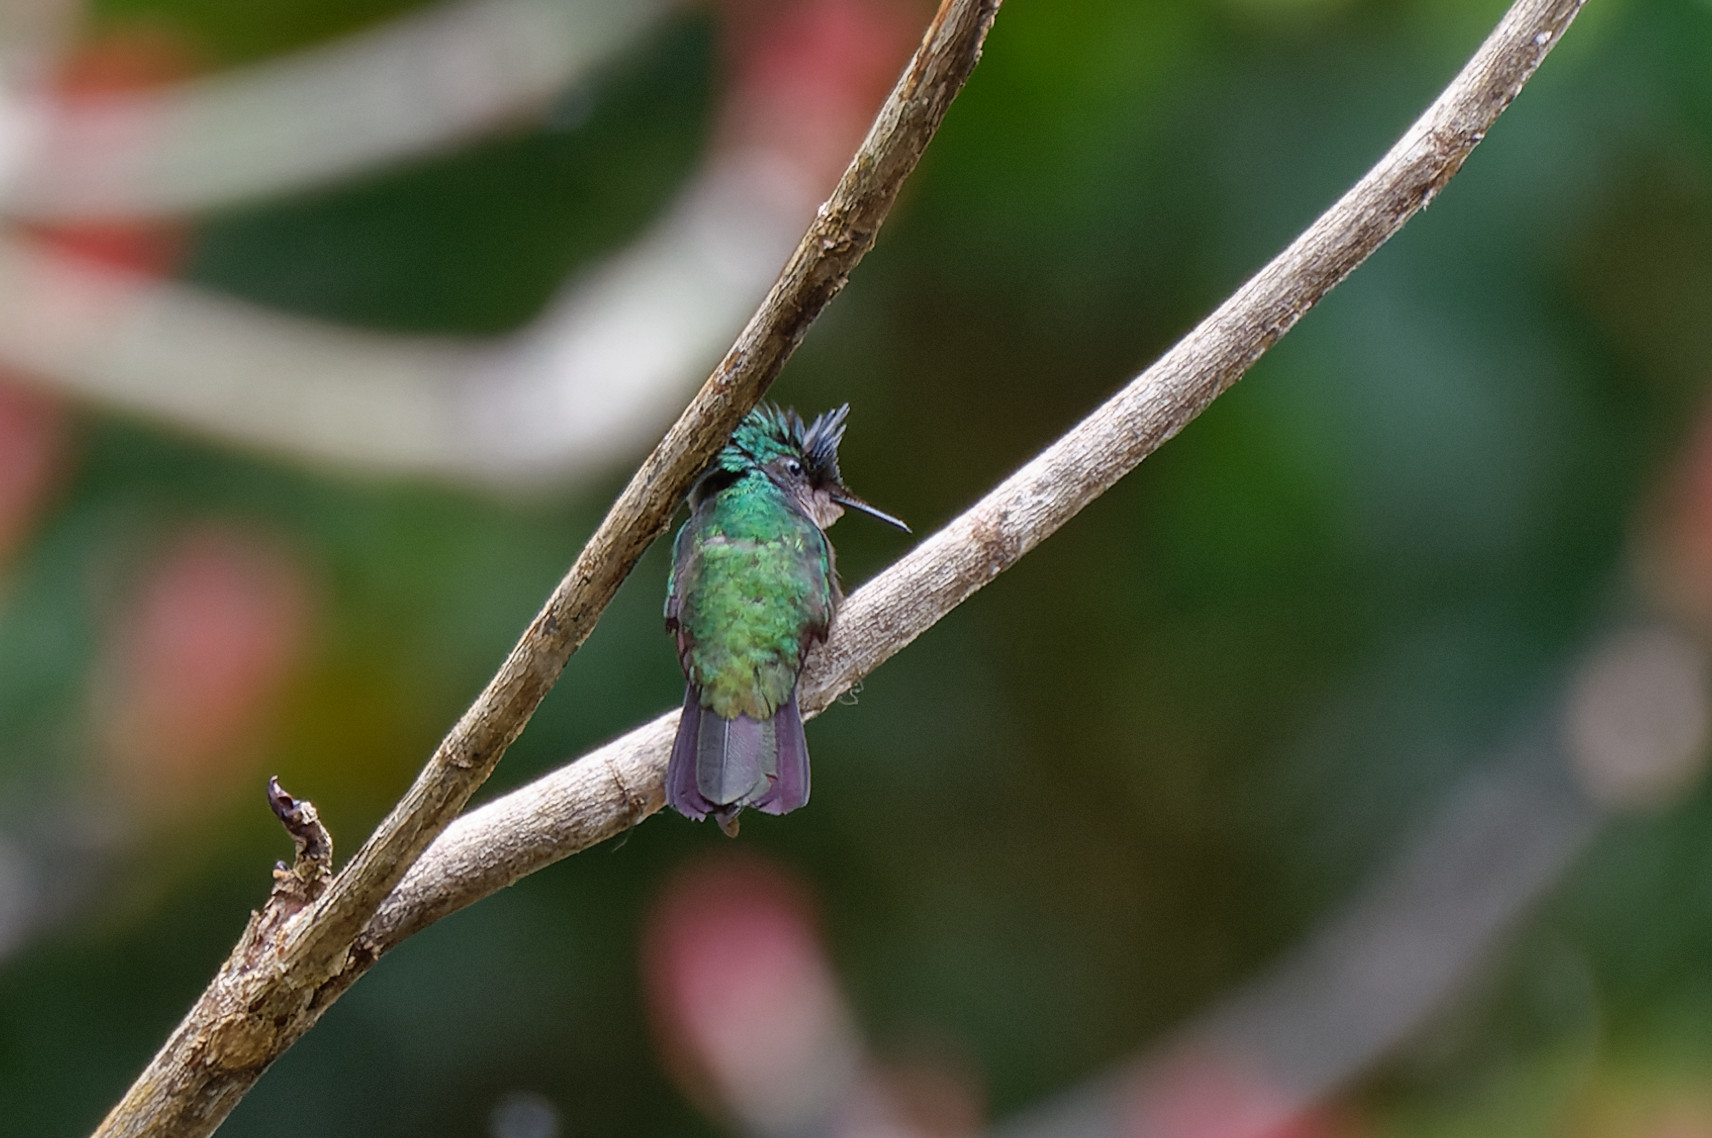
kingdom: Animalia
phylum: Chordata
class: Aves
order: Apodiformes
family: Trochilidae
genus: Orthorhyncus
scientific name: Orthorhyncus cristatus
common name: Antillean crested hummingbird
